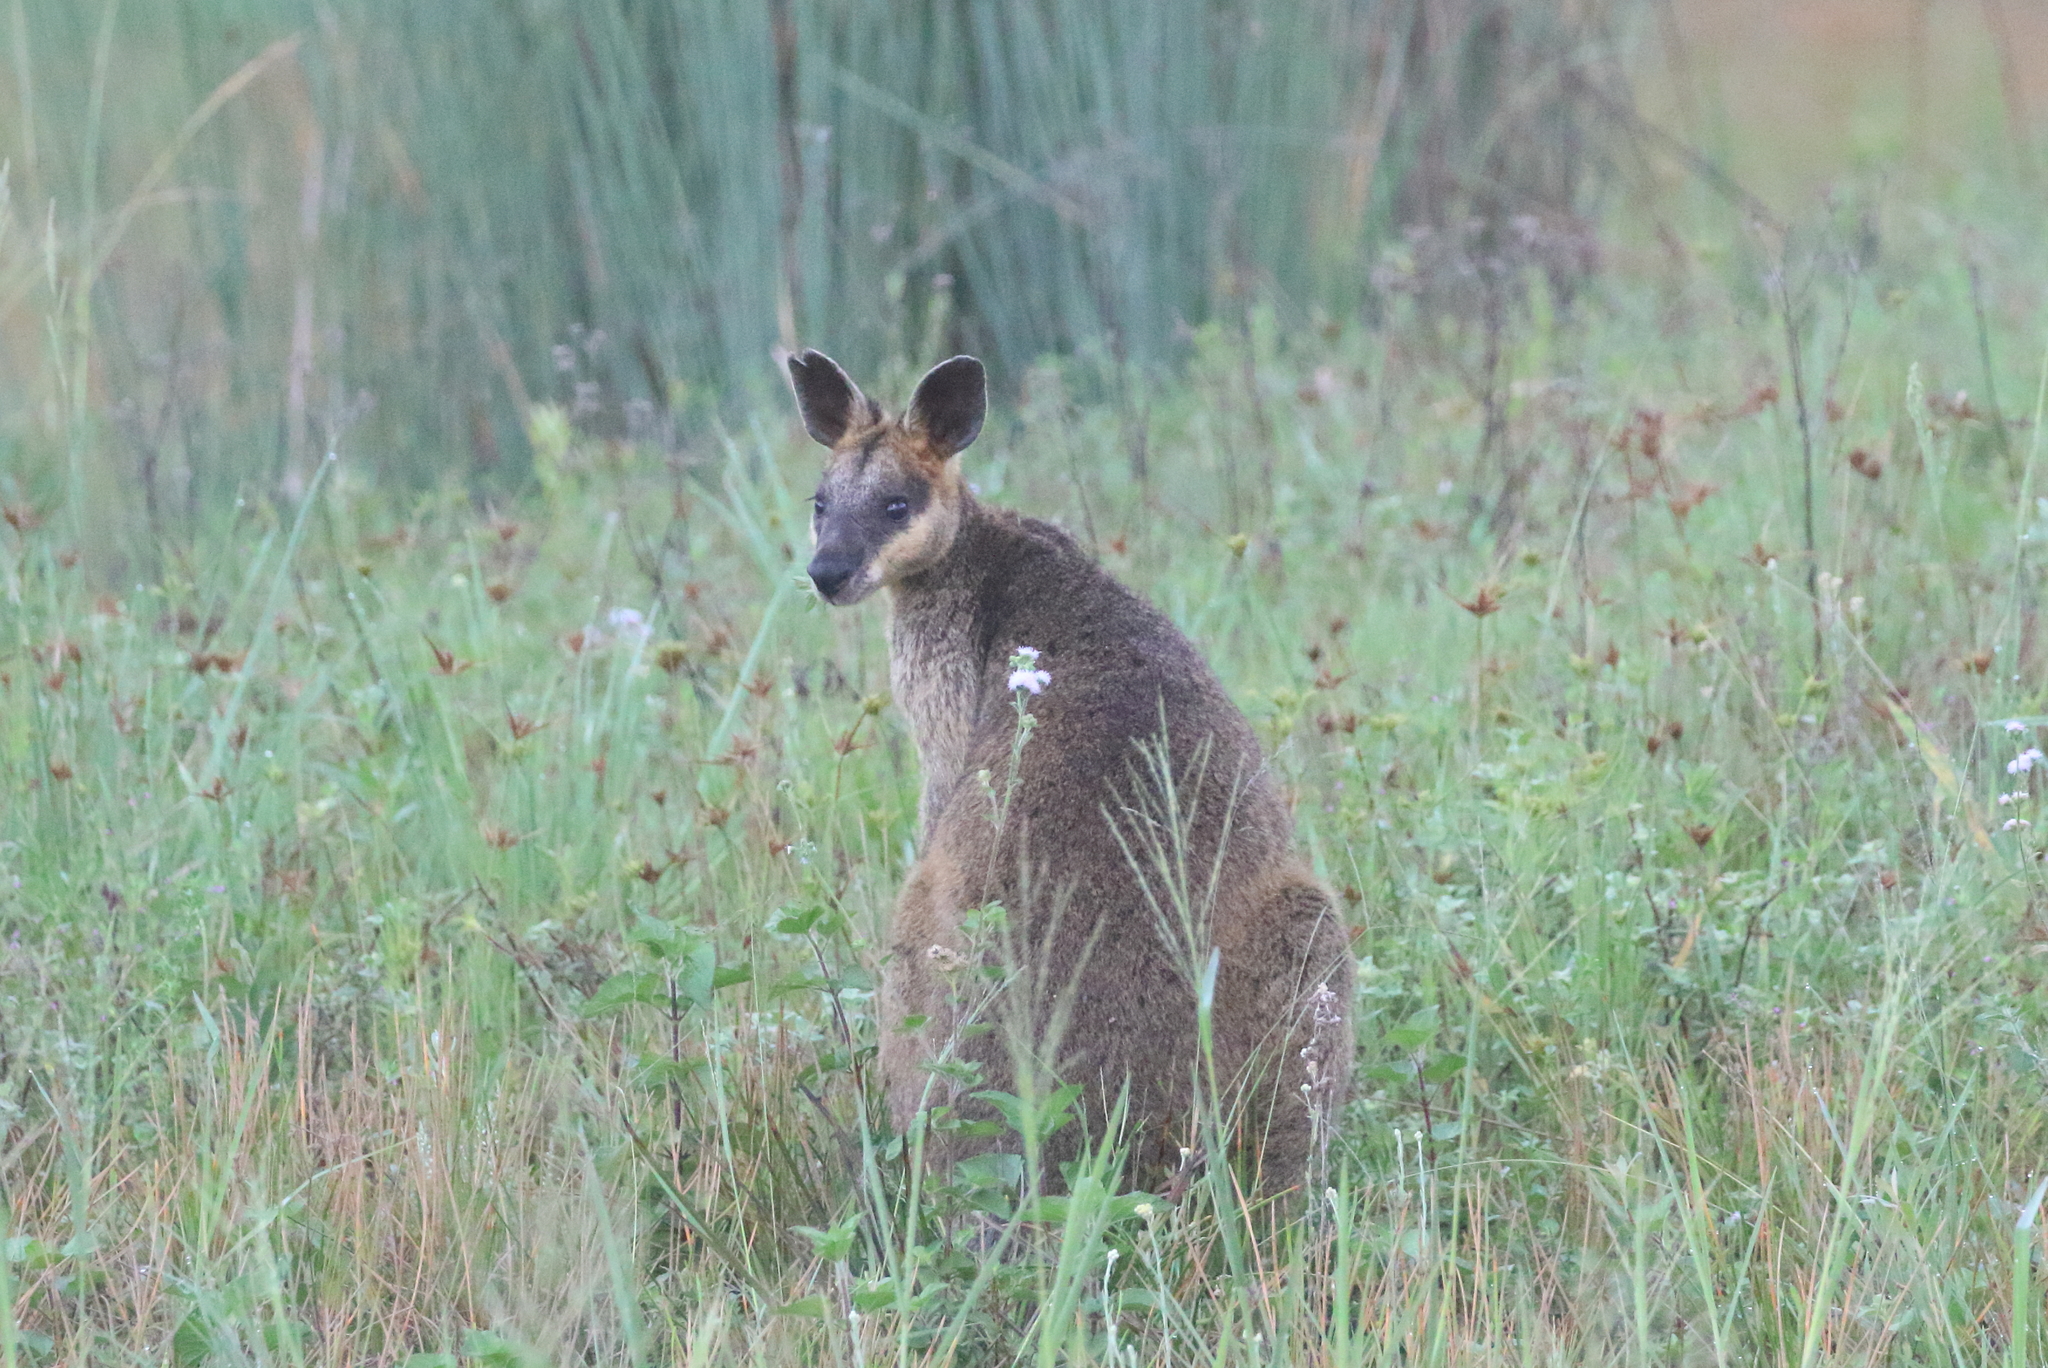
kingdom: Animalia
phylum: Chordata
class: Mammalia
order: Diprotodontia
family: Macropodidae
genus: Wallabia
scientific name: Wallabia bicolor
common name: Swamp wallaby
